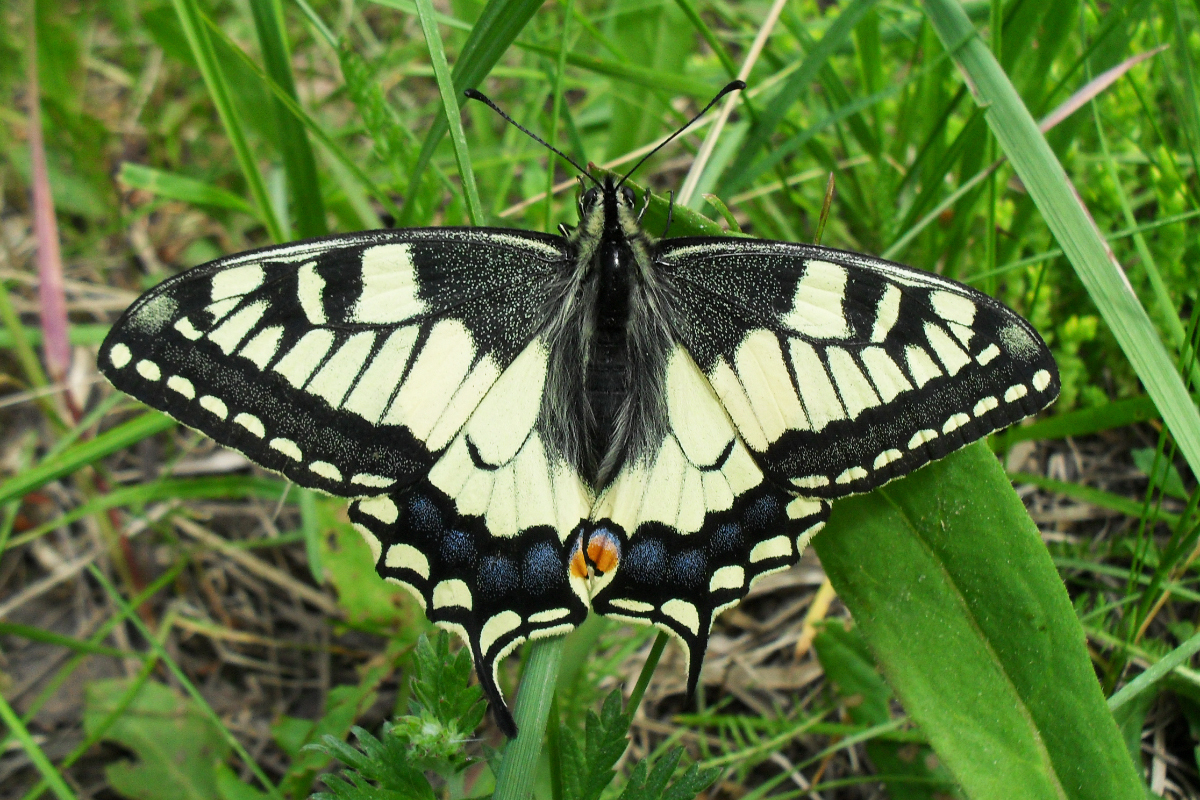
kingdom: Animalia
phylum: Arthropoda
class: Insecta
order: Lepidoptera
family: Papilionidae
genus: Papilio
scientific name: Papilio machaon
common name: Swallowtail
